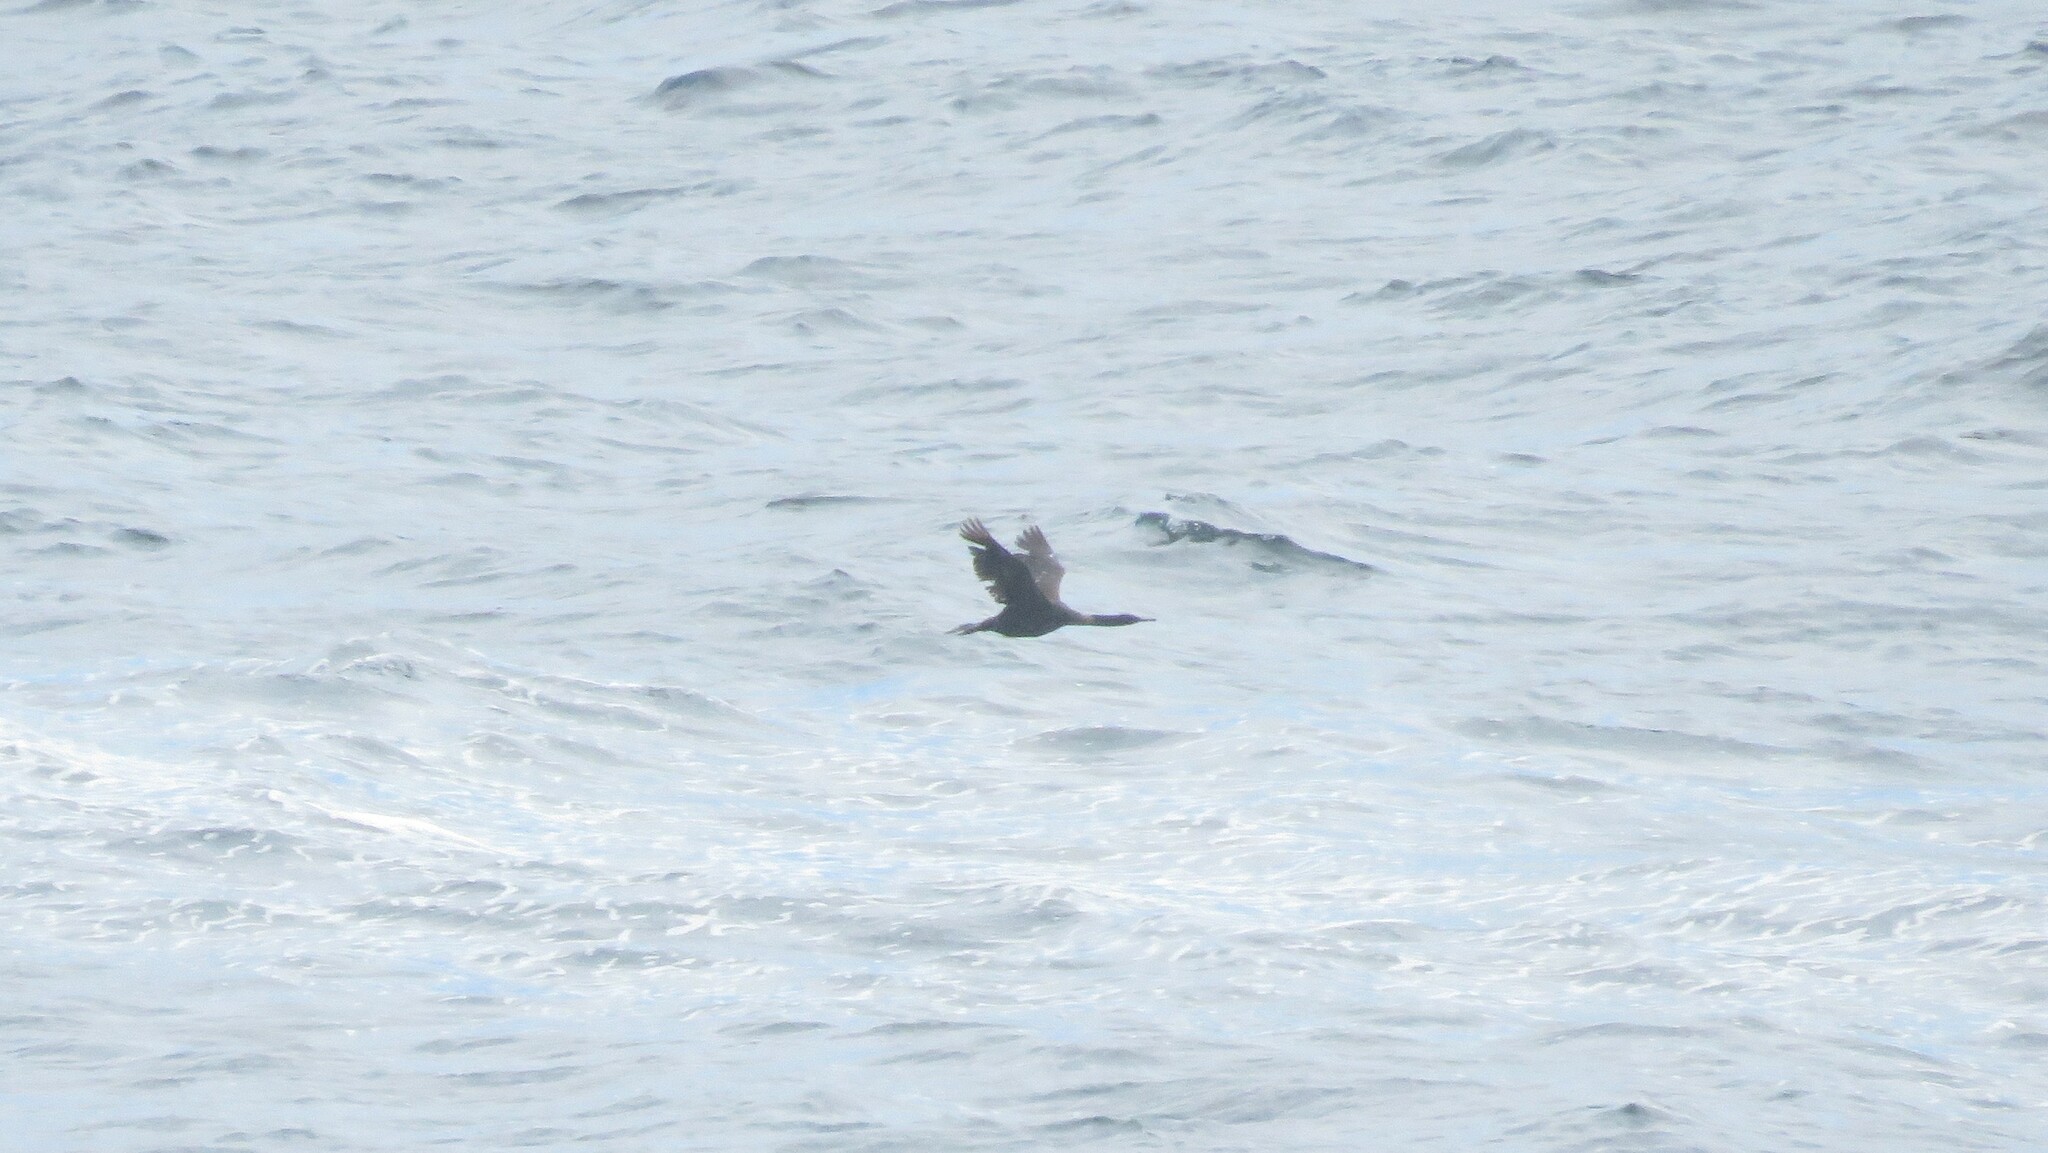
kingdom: Animalia
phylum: Chordata
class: Aves
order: Suliformes
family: Phalacrocoracidae
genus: Phalacrocorax
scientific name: Phalacrocorax pelagicus
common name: Pelagic cormorant
